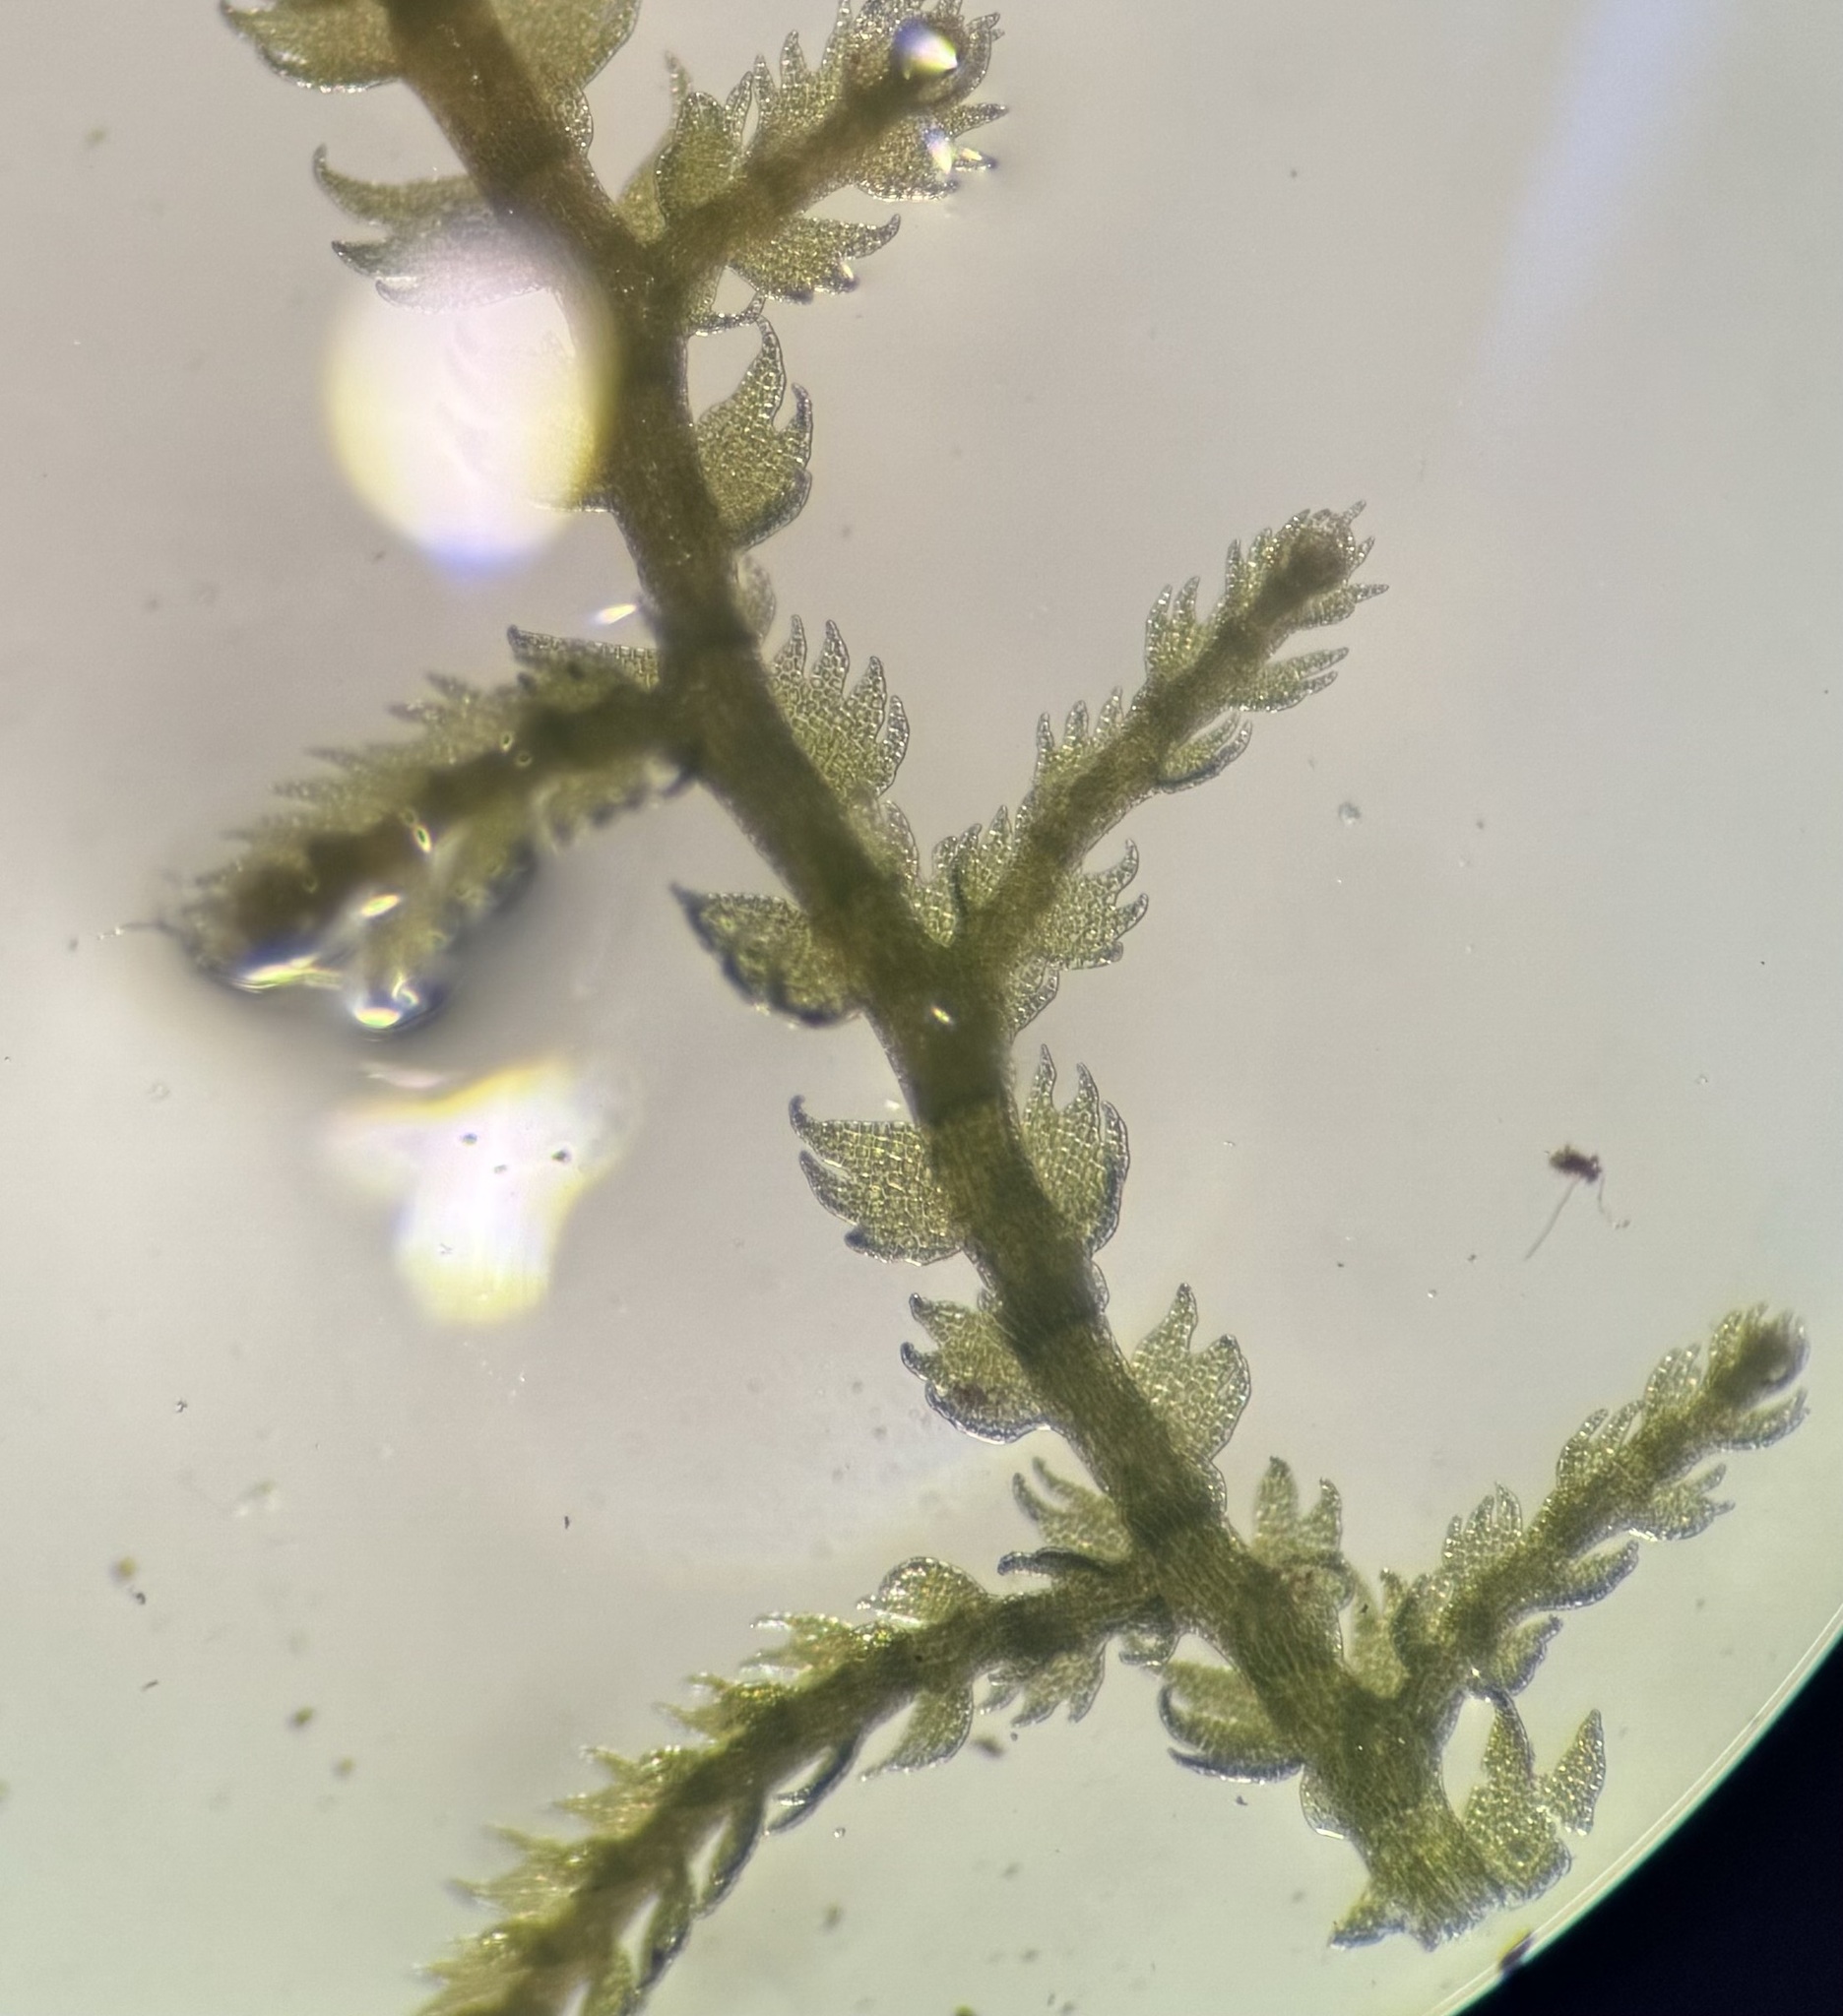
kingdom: Plantae
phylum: Marchantiophyta
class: Jungermanniopsida
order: Jungermanniales
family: Lepidoziaceae
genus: Lepidozia
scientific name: Lepidozia reptans
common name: Creeping fingerwort
